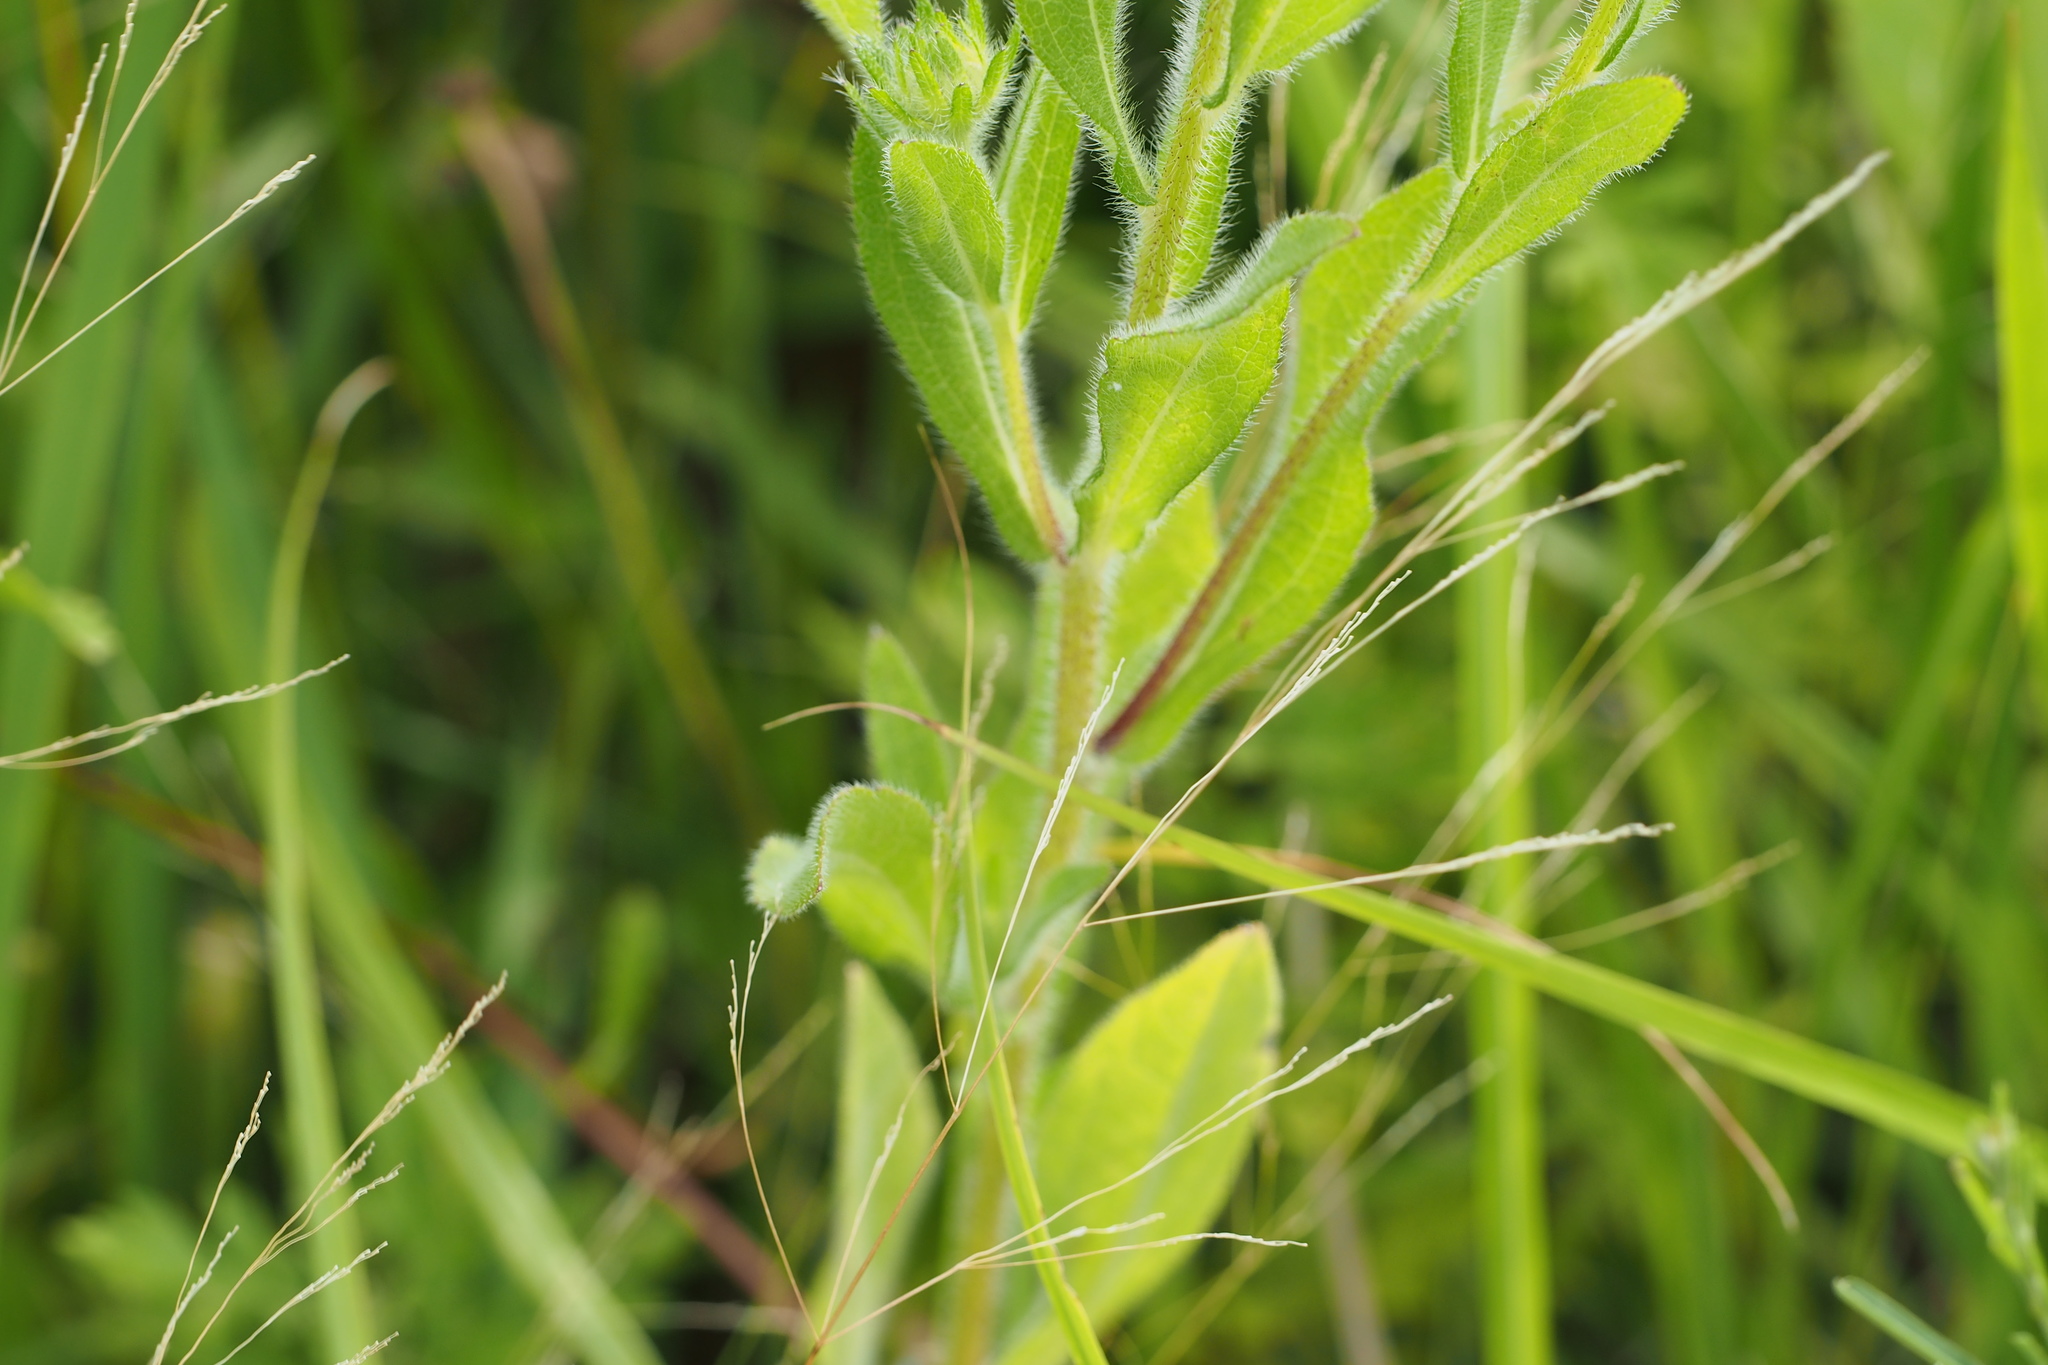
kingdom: Plantae
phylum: Tracheophyta
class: Magnoliopsida
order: Asterales
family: Asteraceae
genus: Rudbeckia
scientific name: Rudbeckia hirta
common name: Black-eyed-susan
